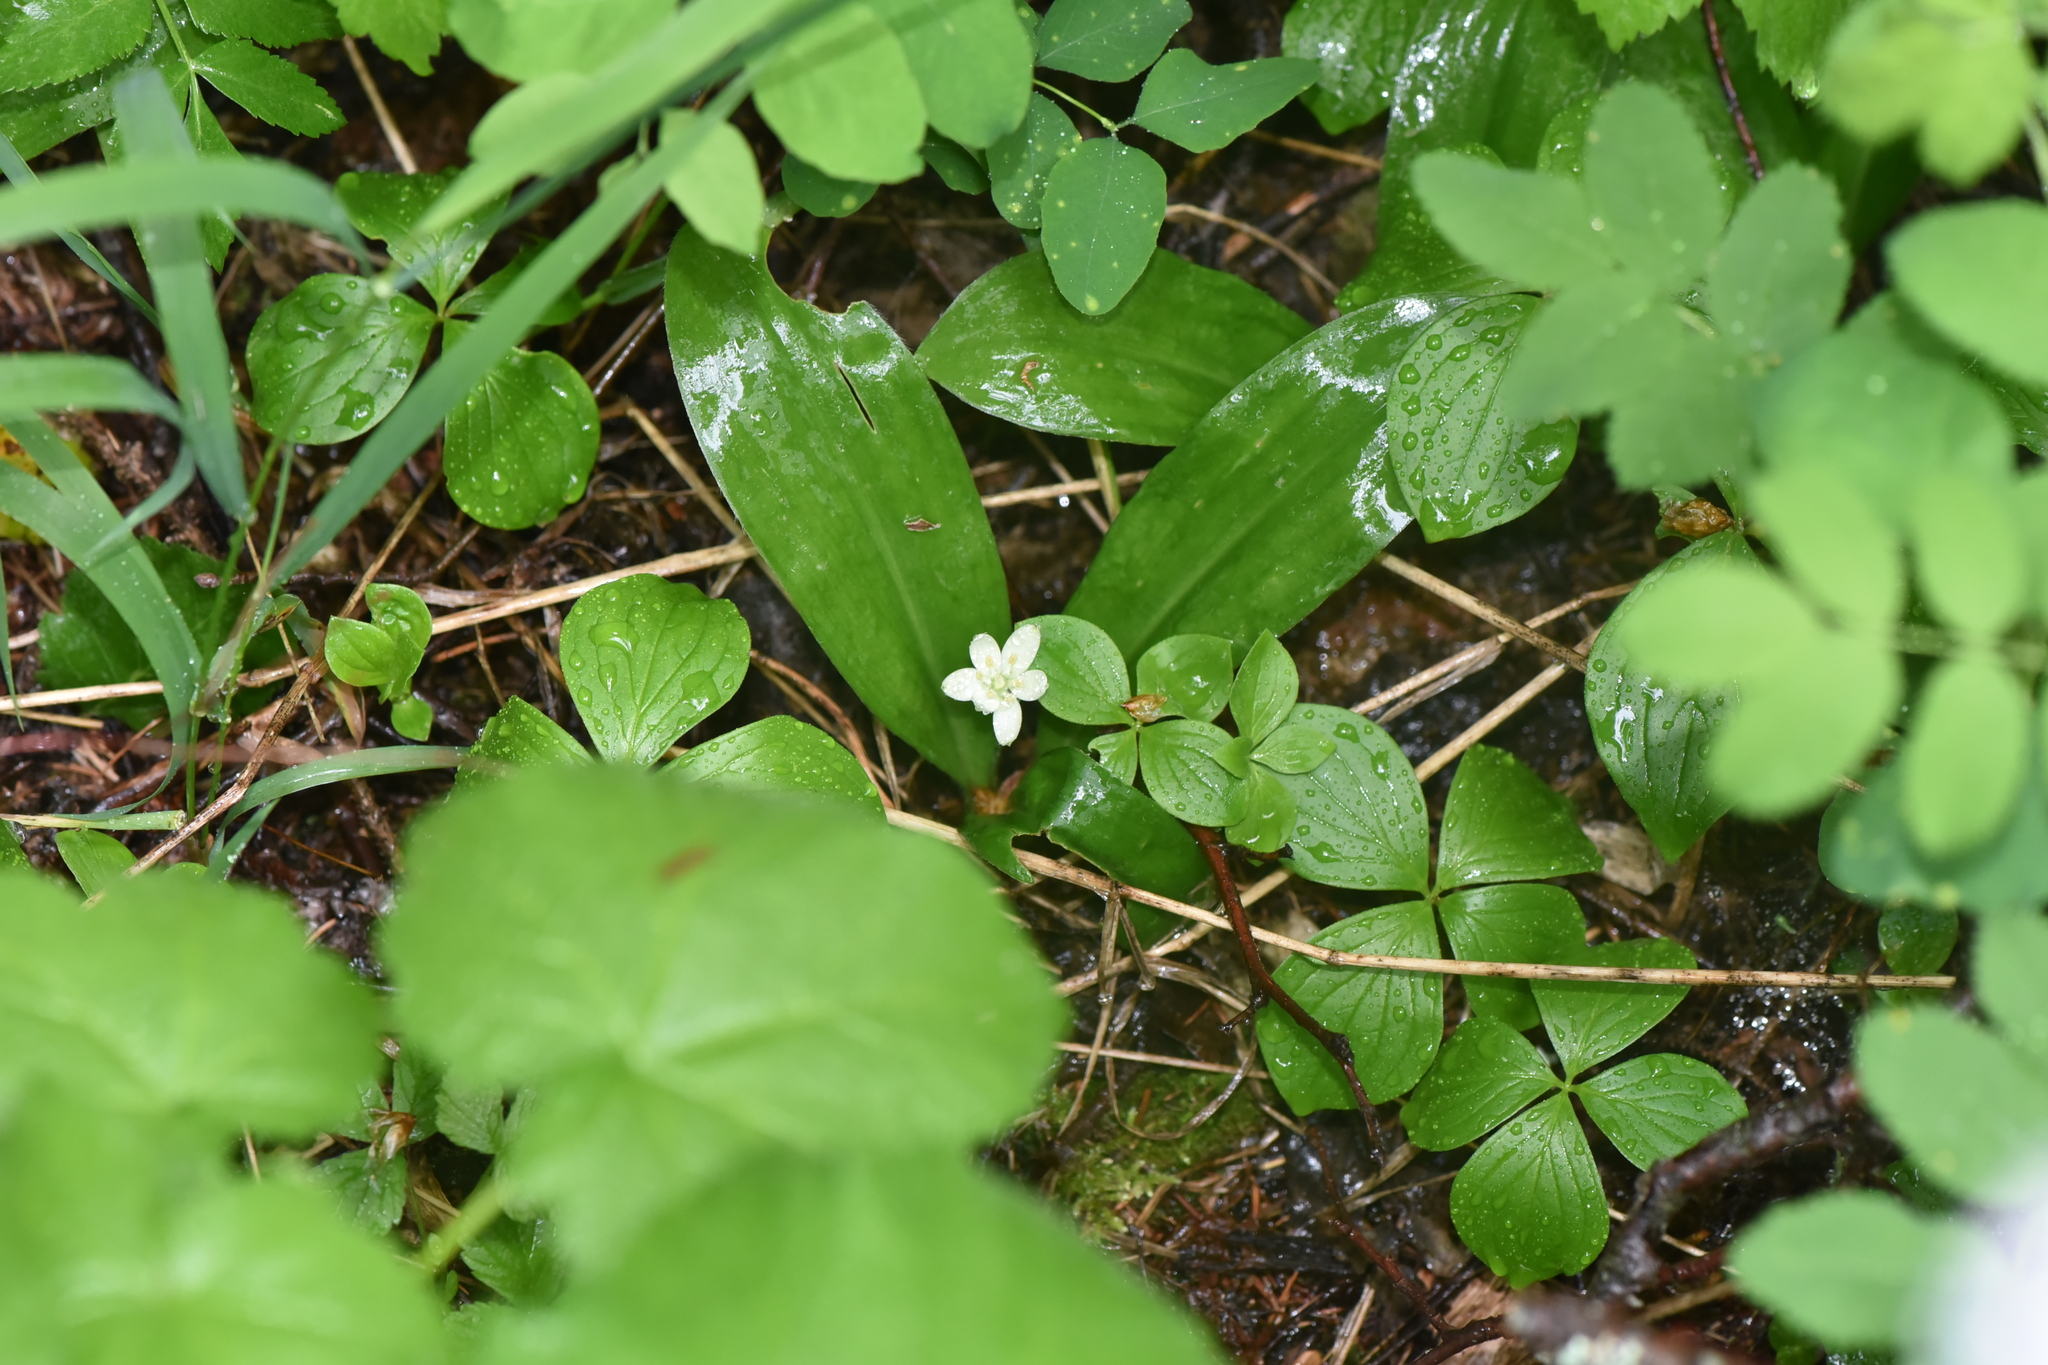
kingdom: Plantae
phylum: Tracheophyta
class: Liliopsida
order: Liliales
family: Liliaceae
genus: Clintonia
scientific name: Clintonia uniflora
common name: Queen's cup
